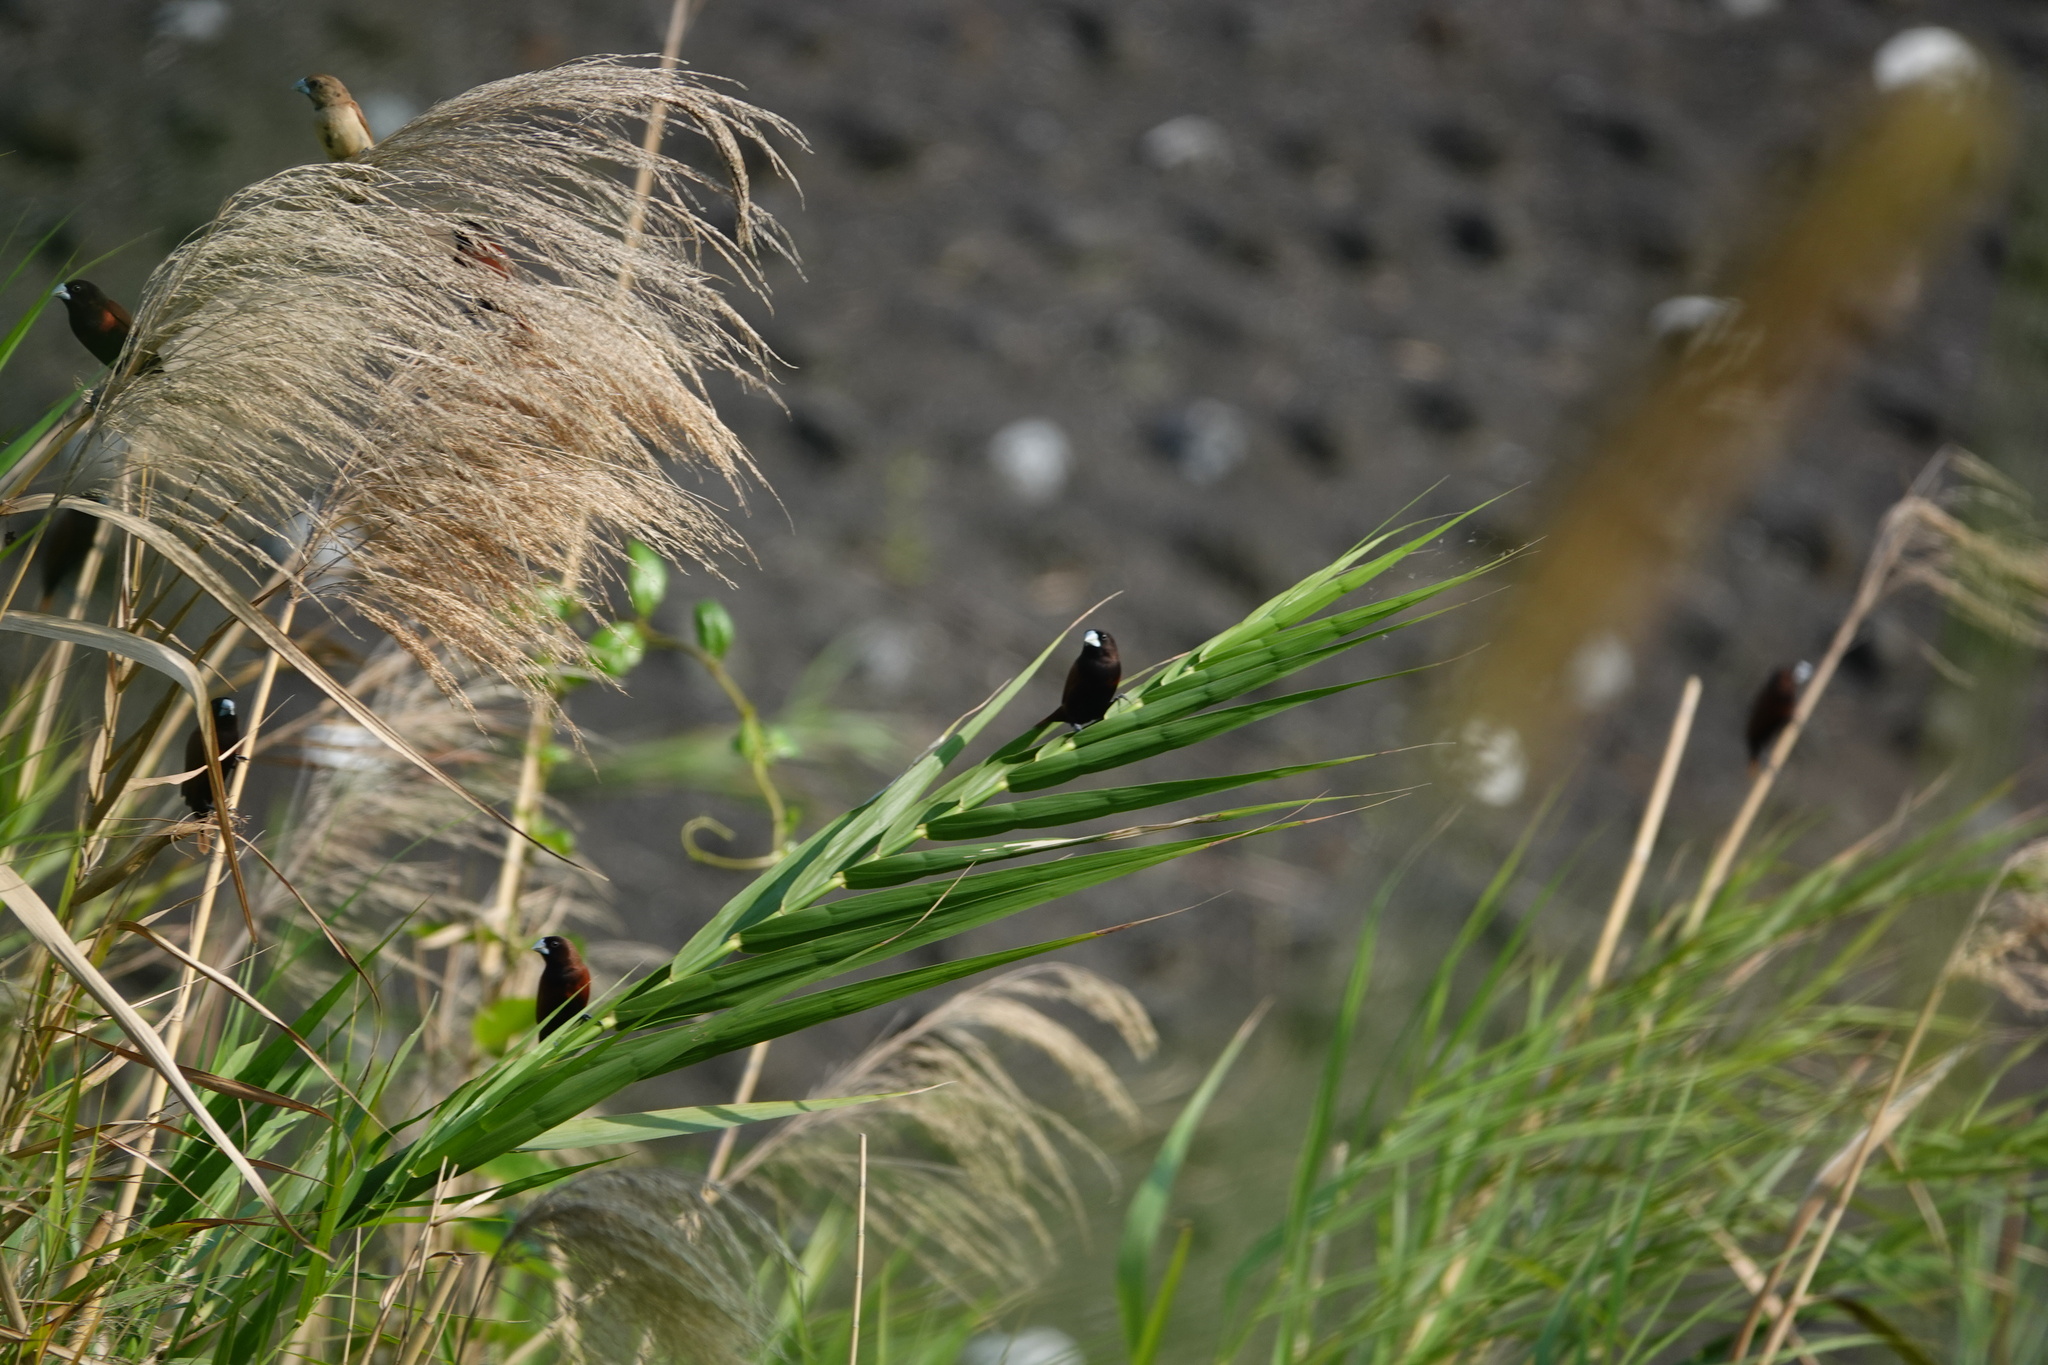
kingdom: Animalia
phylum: Chordata
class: Aves
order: Passeriformes
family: Estrildidae
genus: Lonchura
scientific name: Lonchura atricapilla
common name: Chestnut munia
